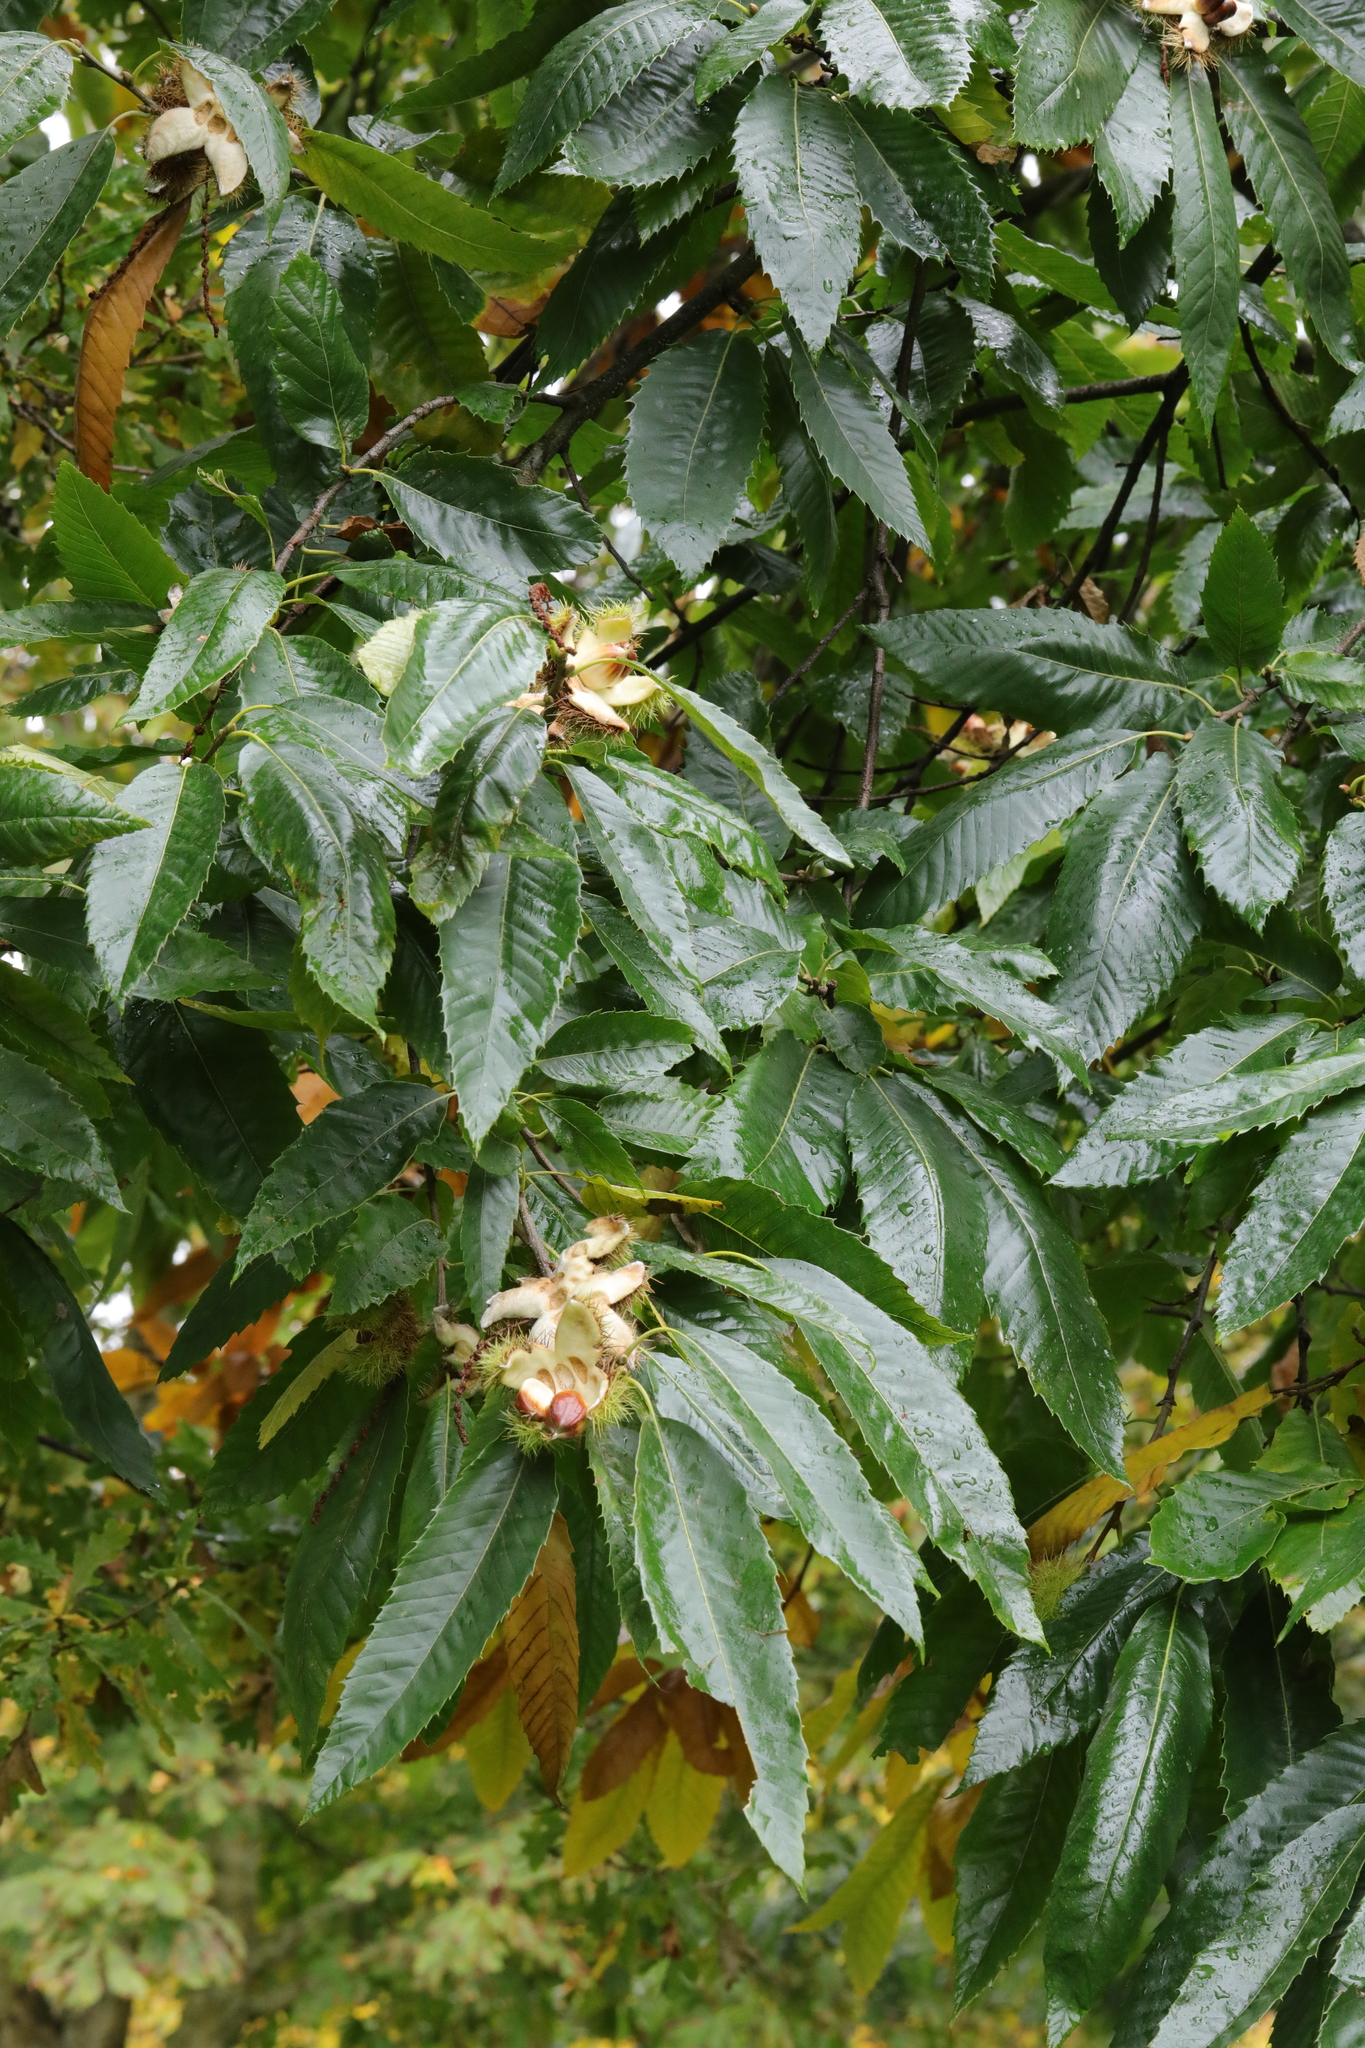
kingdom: Plantae
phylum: Tracheophyta
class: Magnoliopsida
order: Fagales
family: Fagaceae
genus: Castanea
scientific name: Castanea sativa
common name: Sweet chestnut
